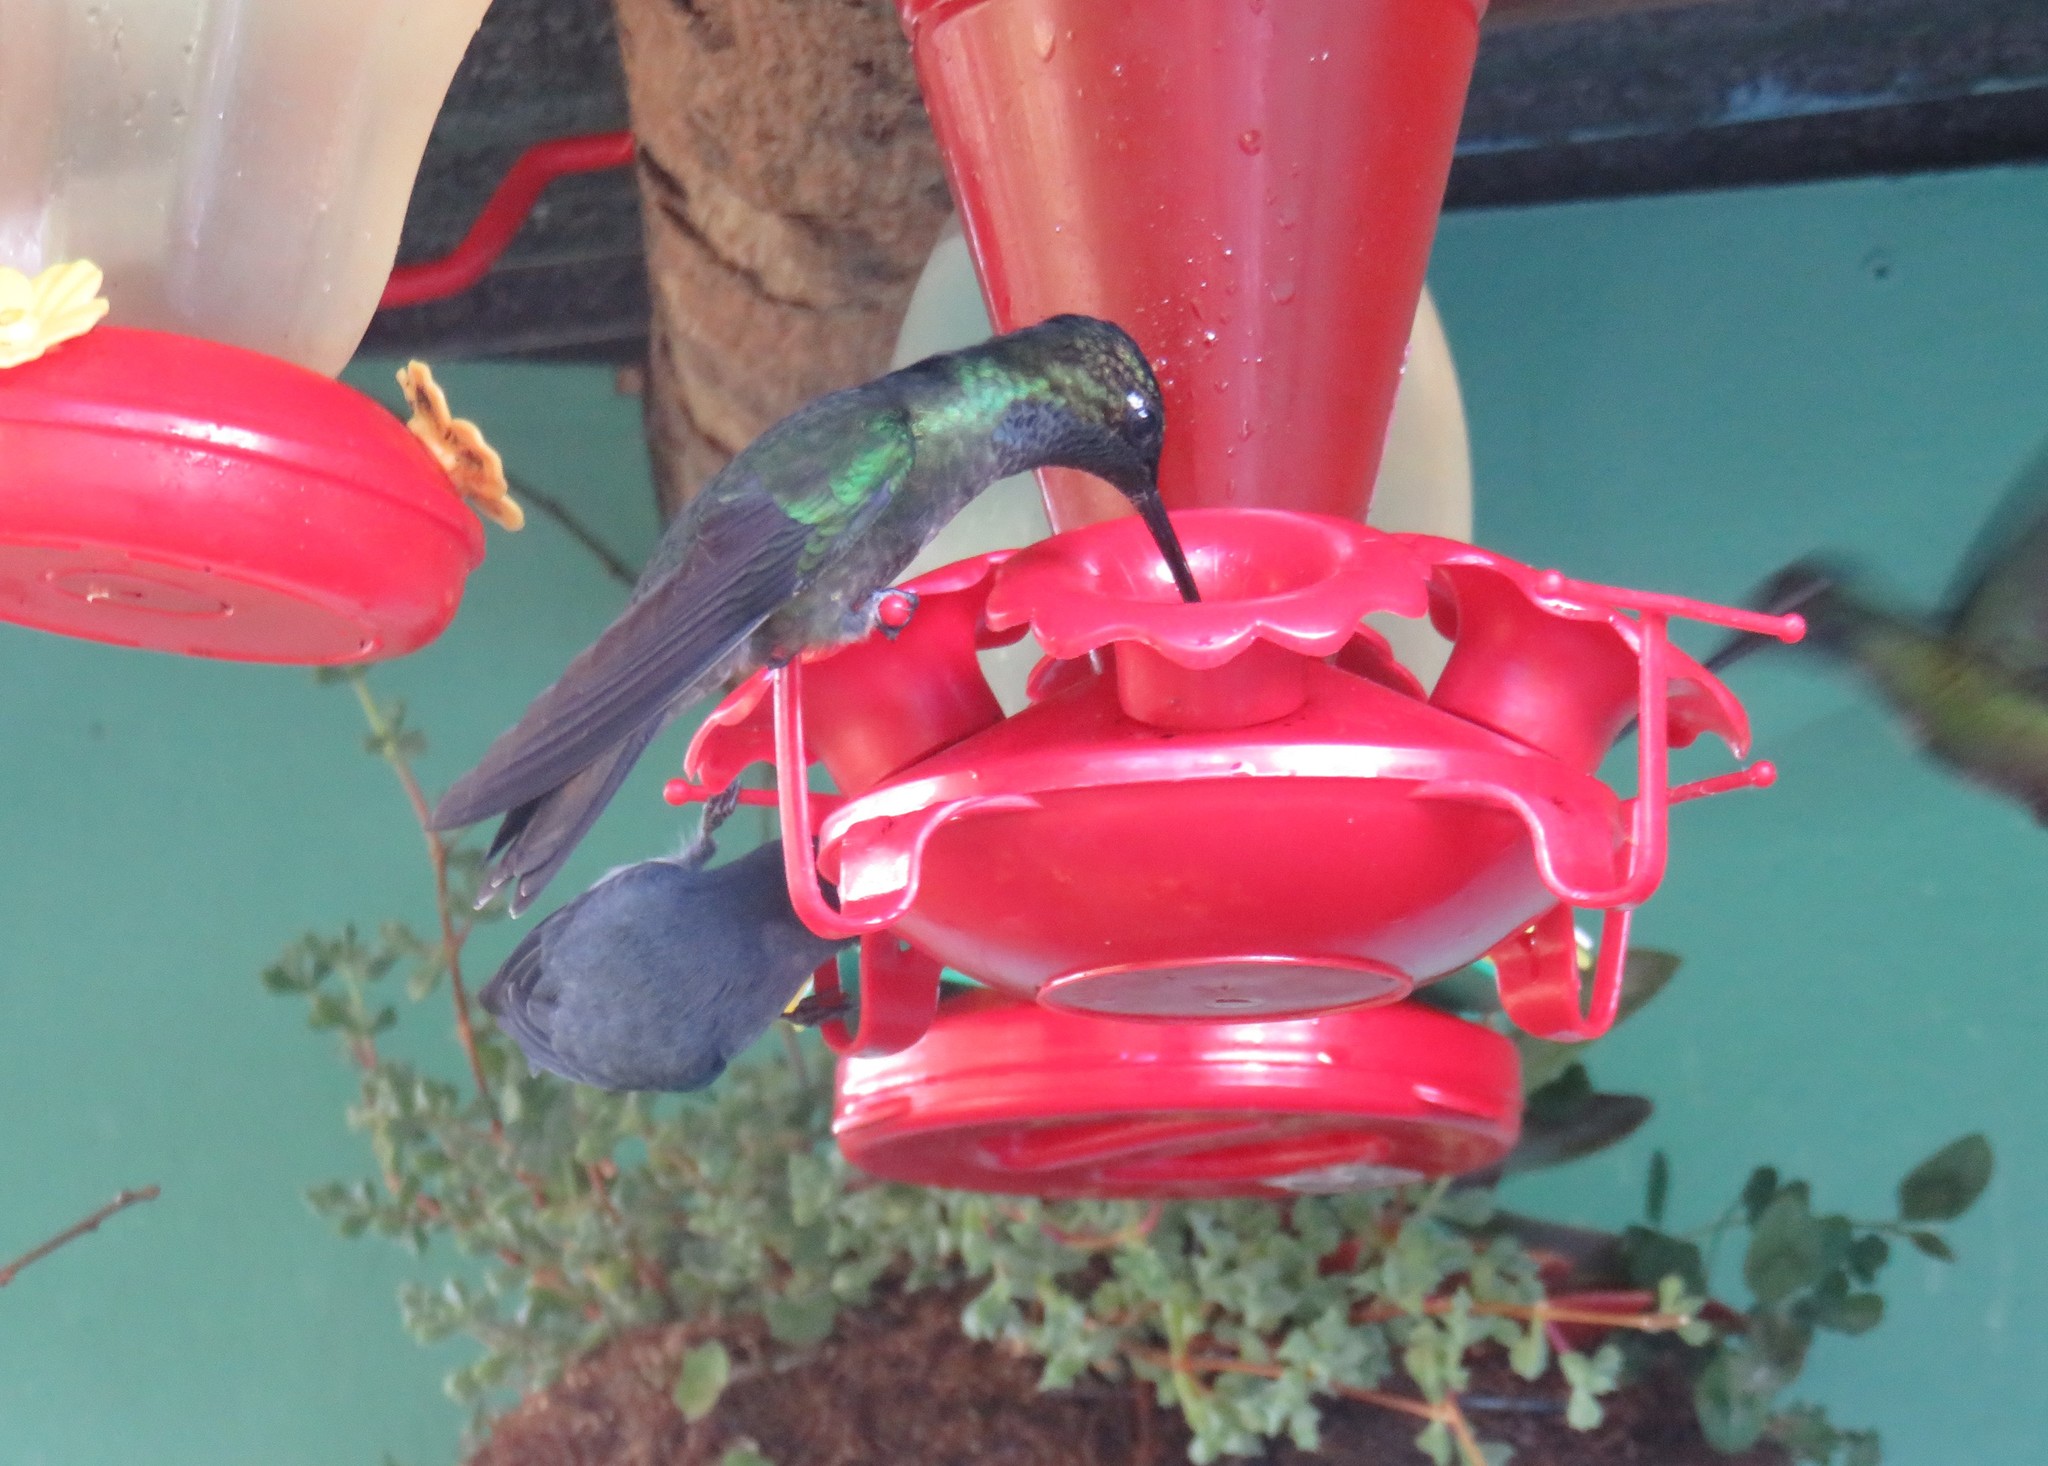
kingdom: Animalia
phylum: Chordata
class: Aves
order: Apodiformes
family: Trochilidae
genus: Eugenes
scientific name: Eugenes spectabilis
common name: Talamanca hummingbird
